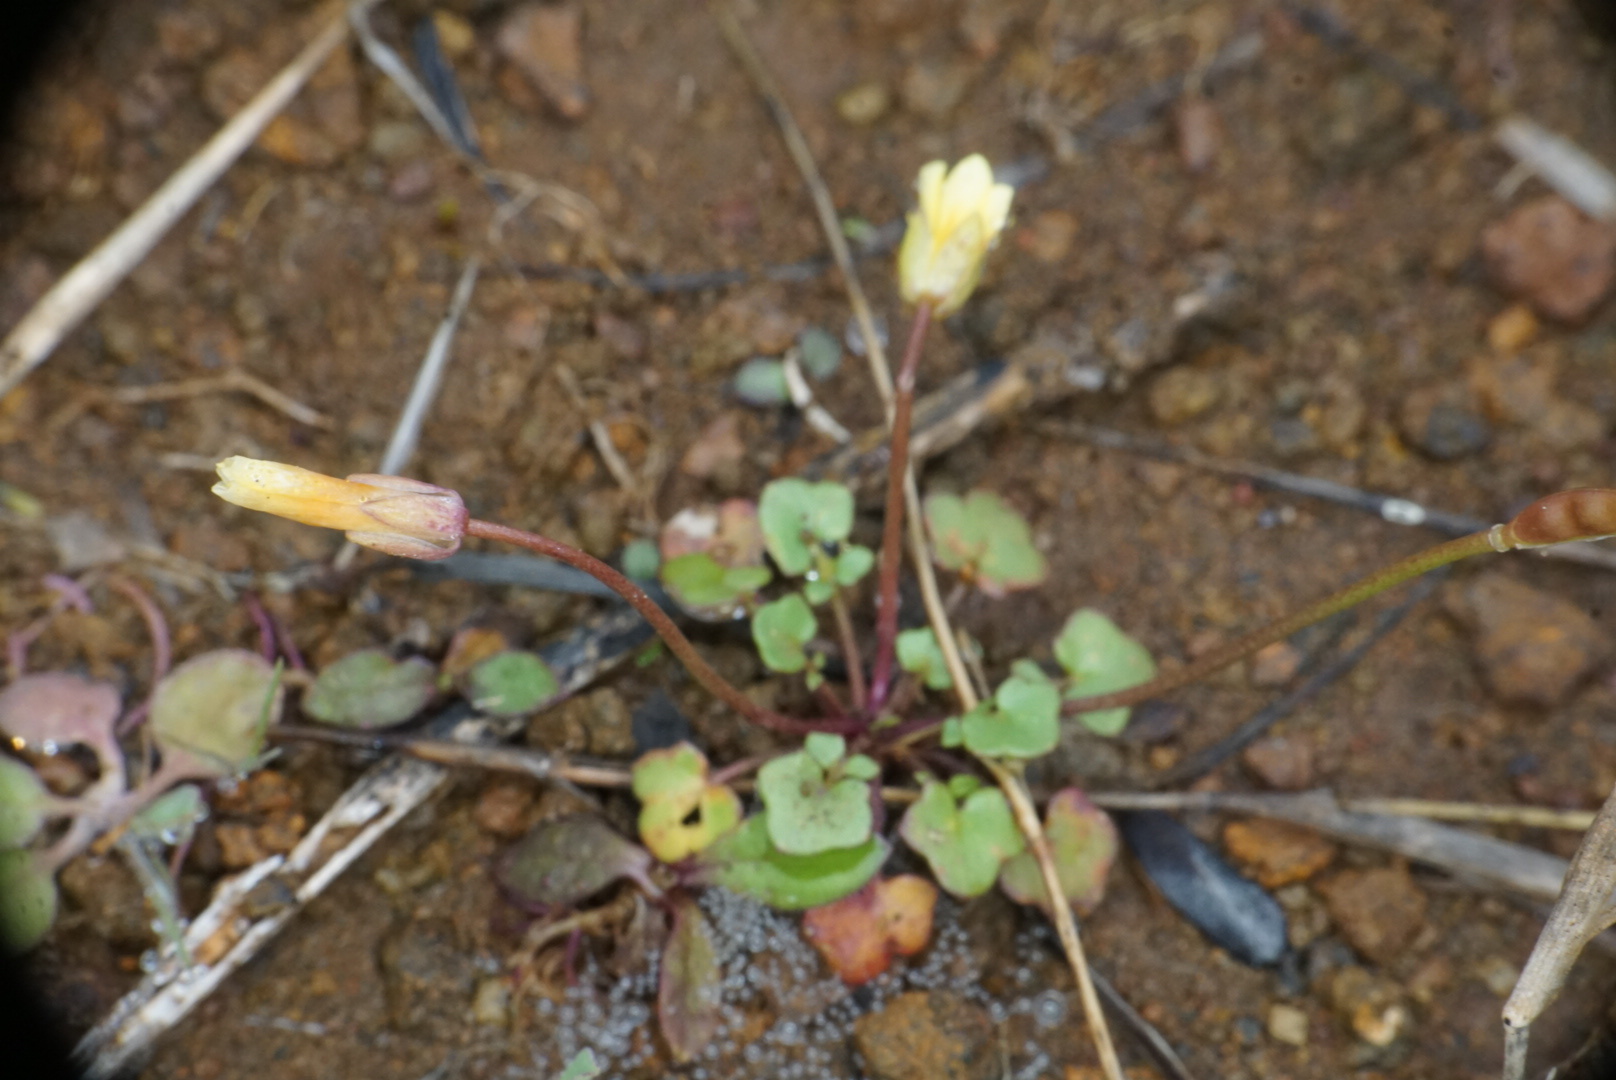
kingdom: Plantae
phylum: Tracheophyta
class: Magnoliopsida
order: Brassicales
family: Brassicaceae
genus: Leavenworthia
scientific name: Leavenworthia texana
